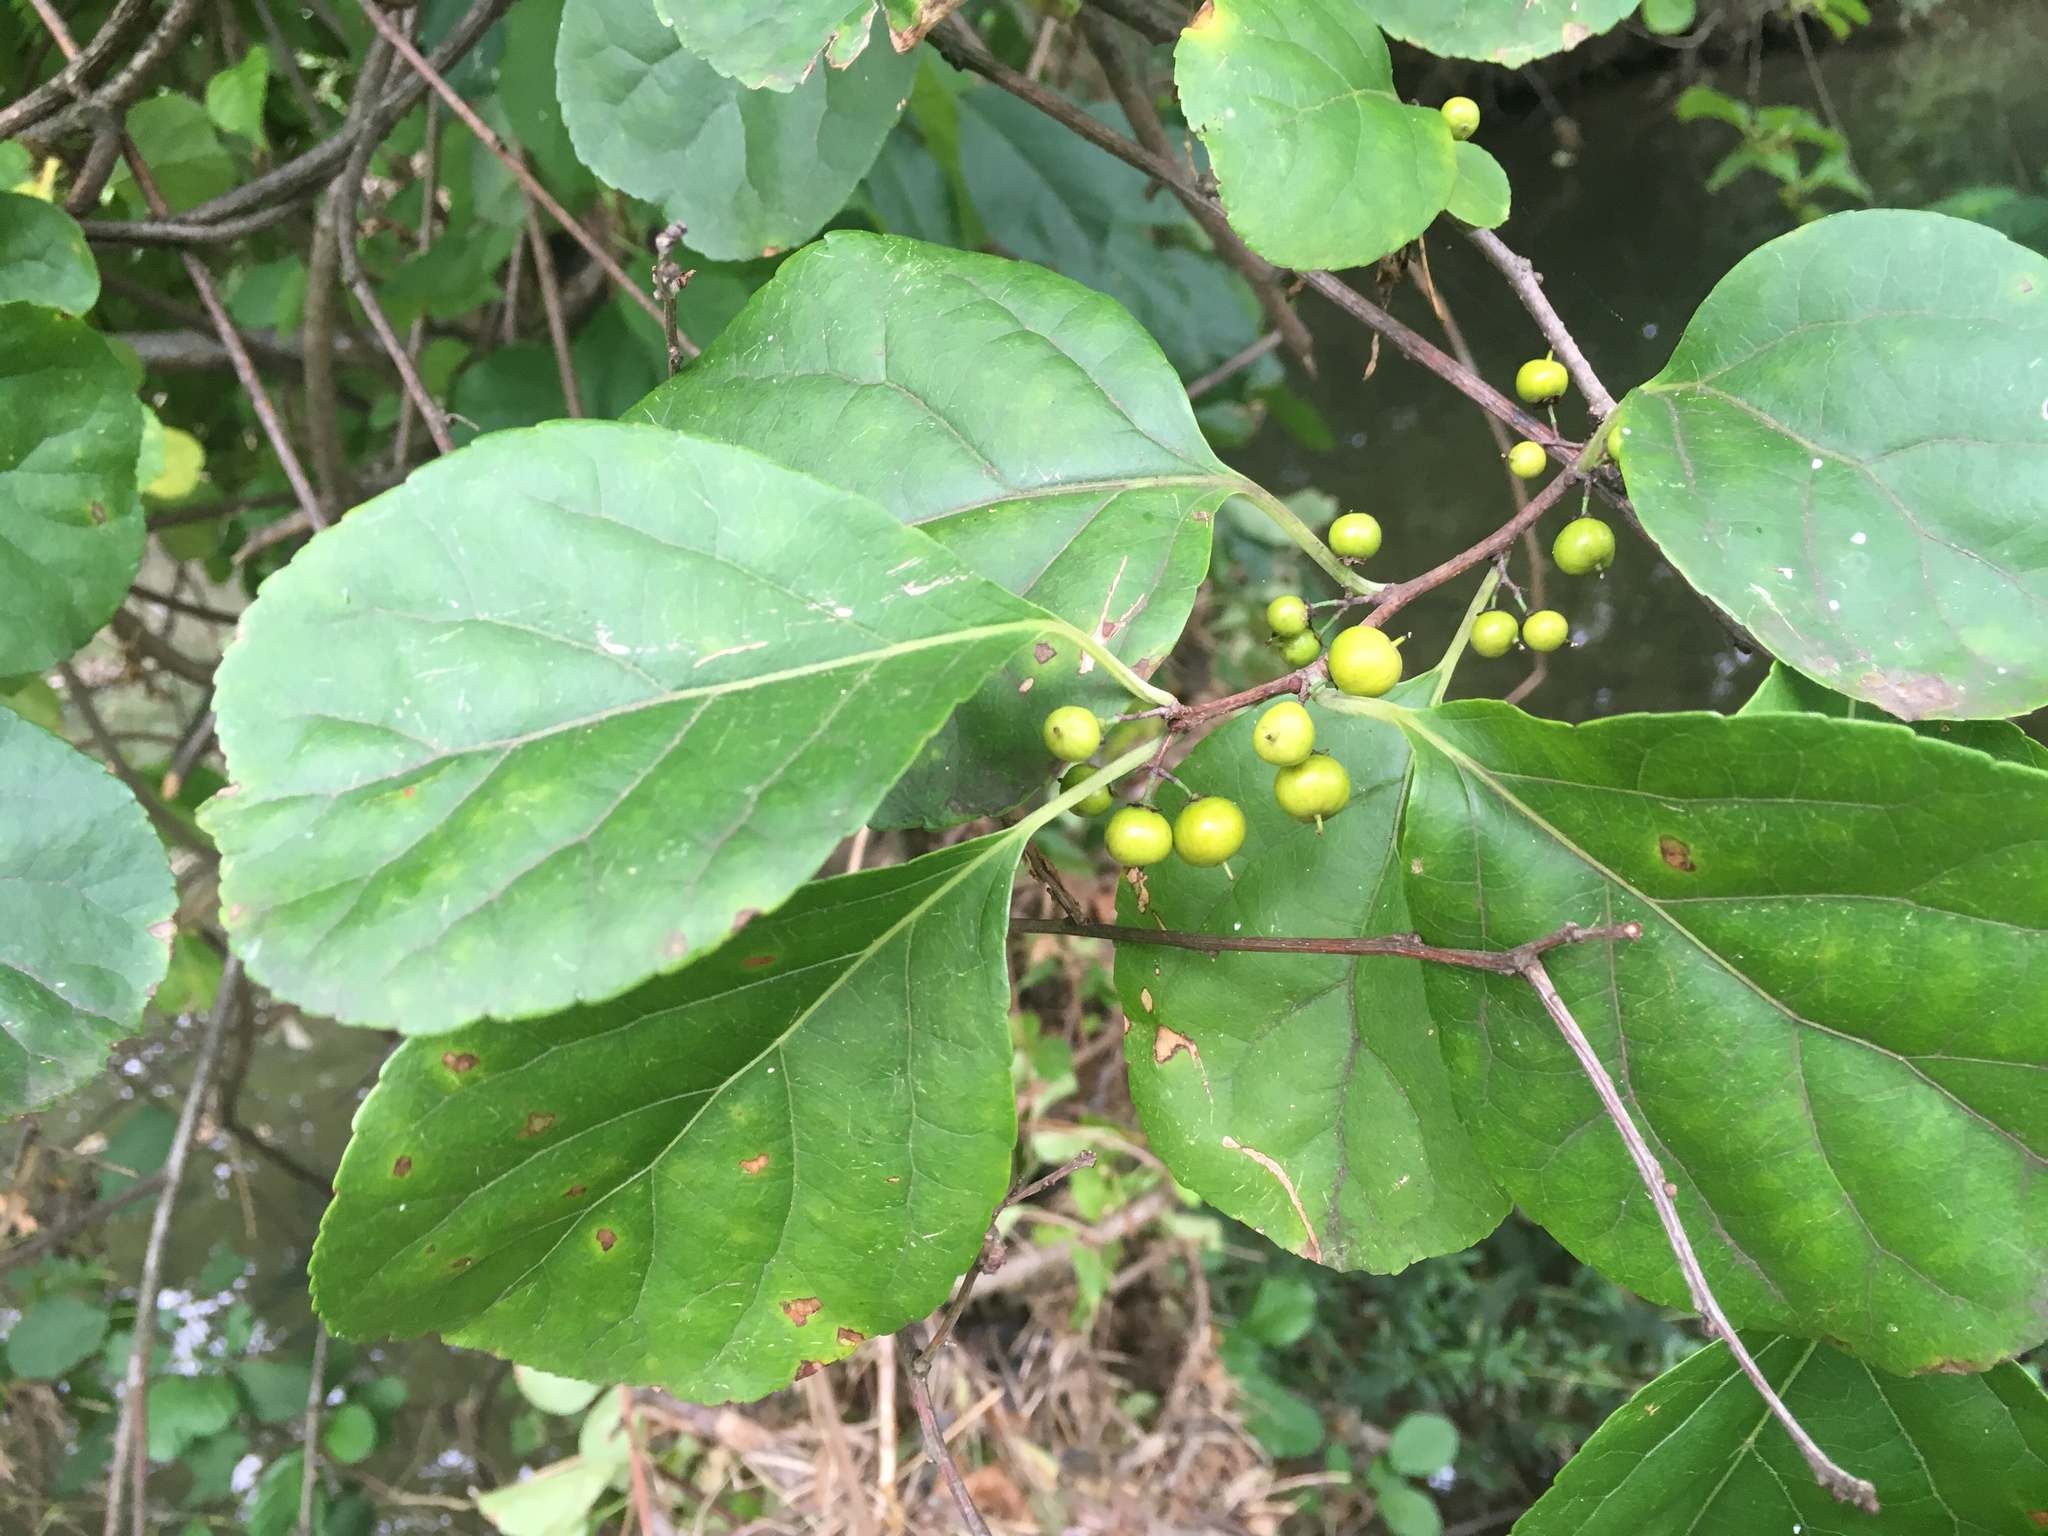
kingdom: Plantae
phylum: Tracheophyta
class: Magnoliopsida
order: Celastrales
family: Celastraceae
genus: Celastrus
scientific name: Celastrus orbiculatus
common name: Oriental bittersweet
